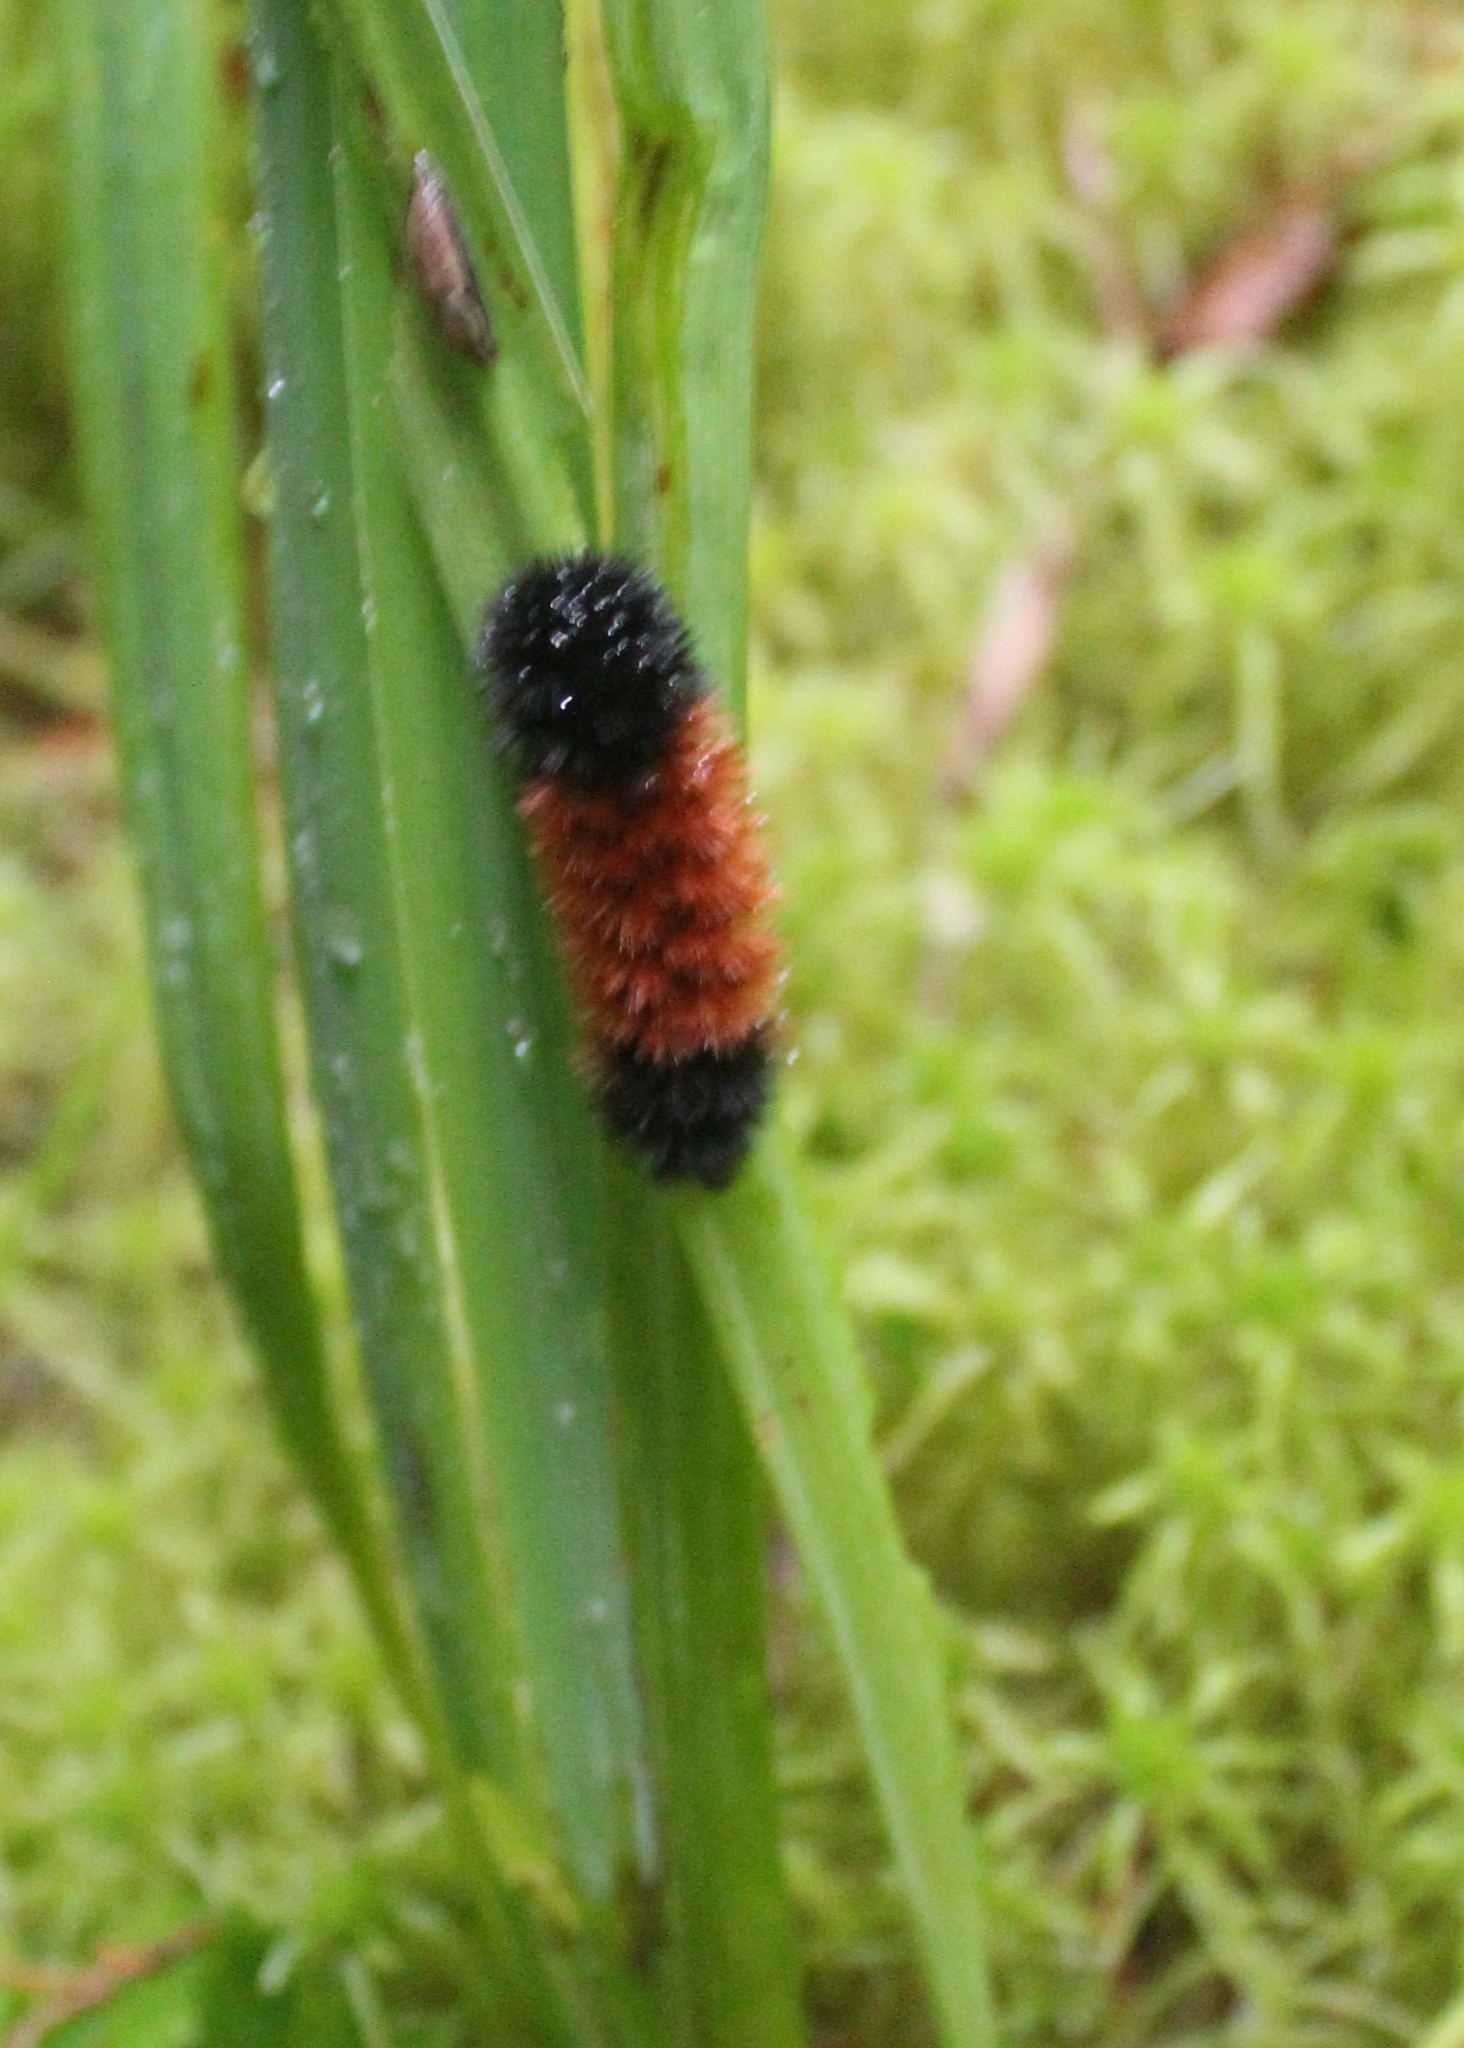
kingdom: Animalia
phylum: Arthropoda
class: Insecta
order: Lepidoptera
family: Erebidae
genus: Pyrrharctia
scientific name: Pyrrharctia isabella
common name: Isabella tiger moth
